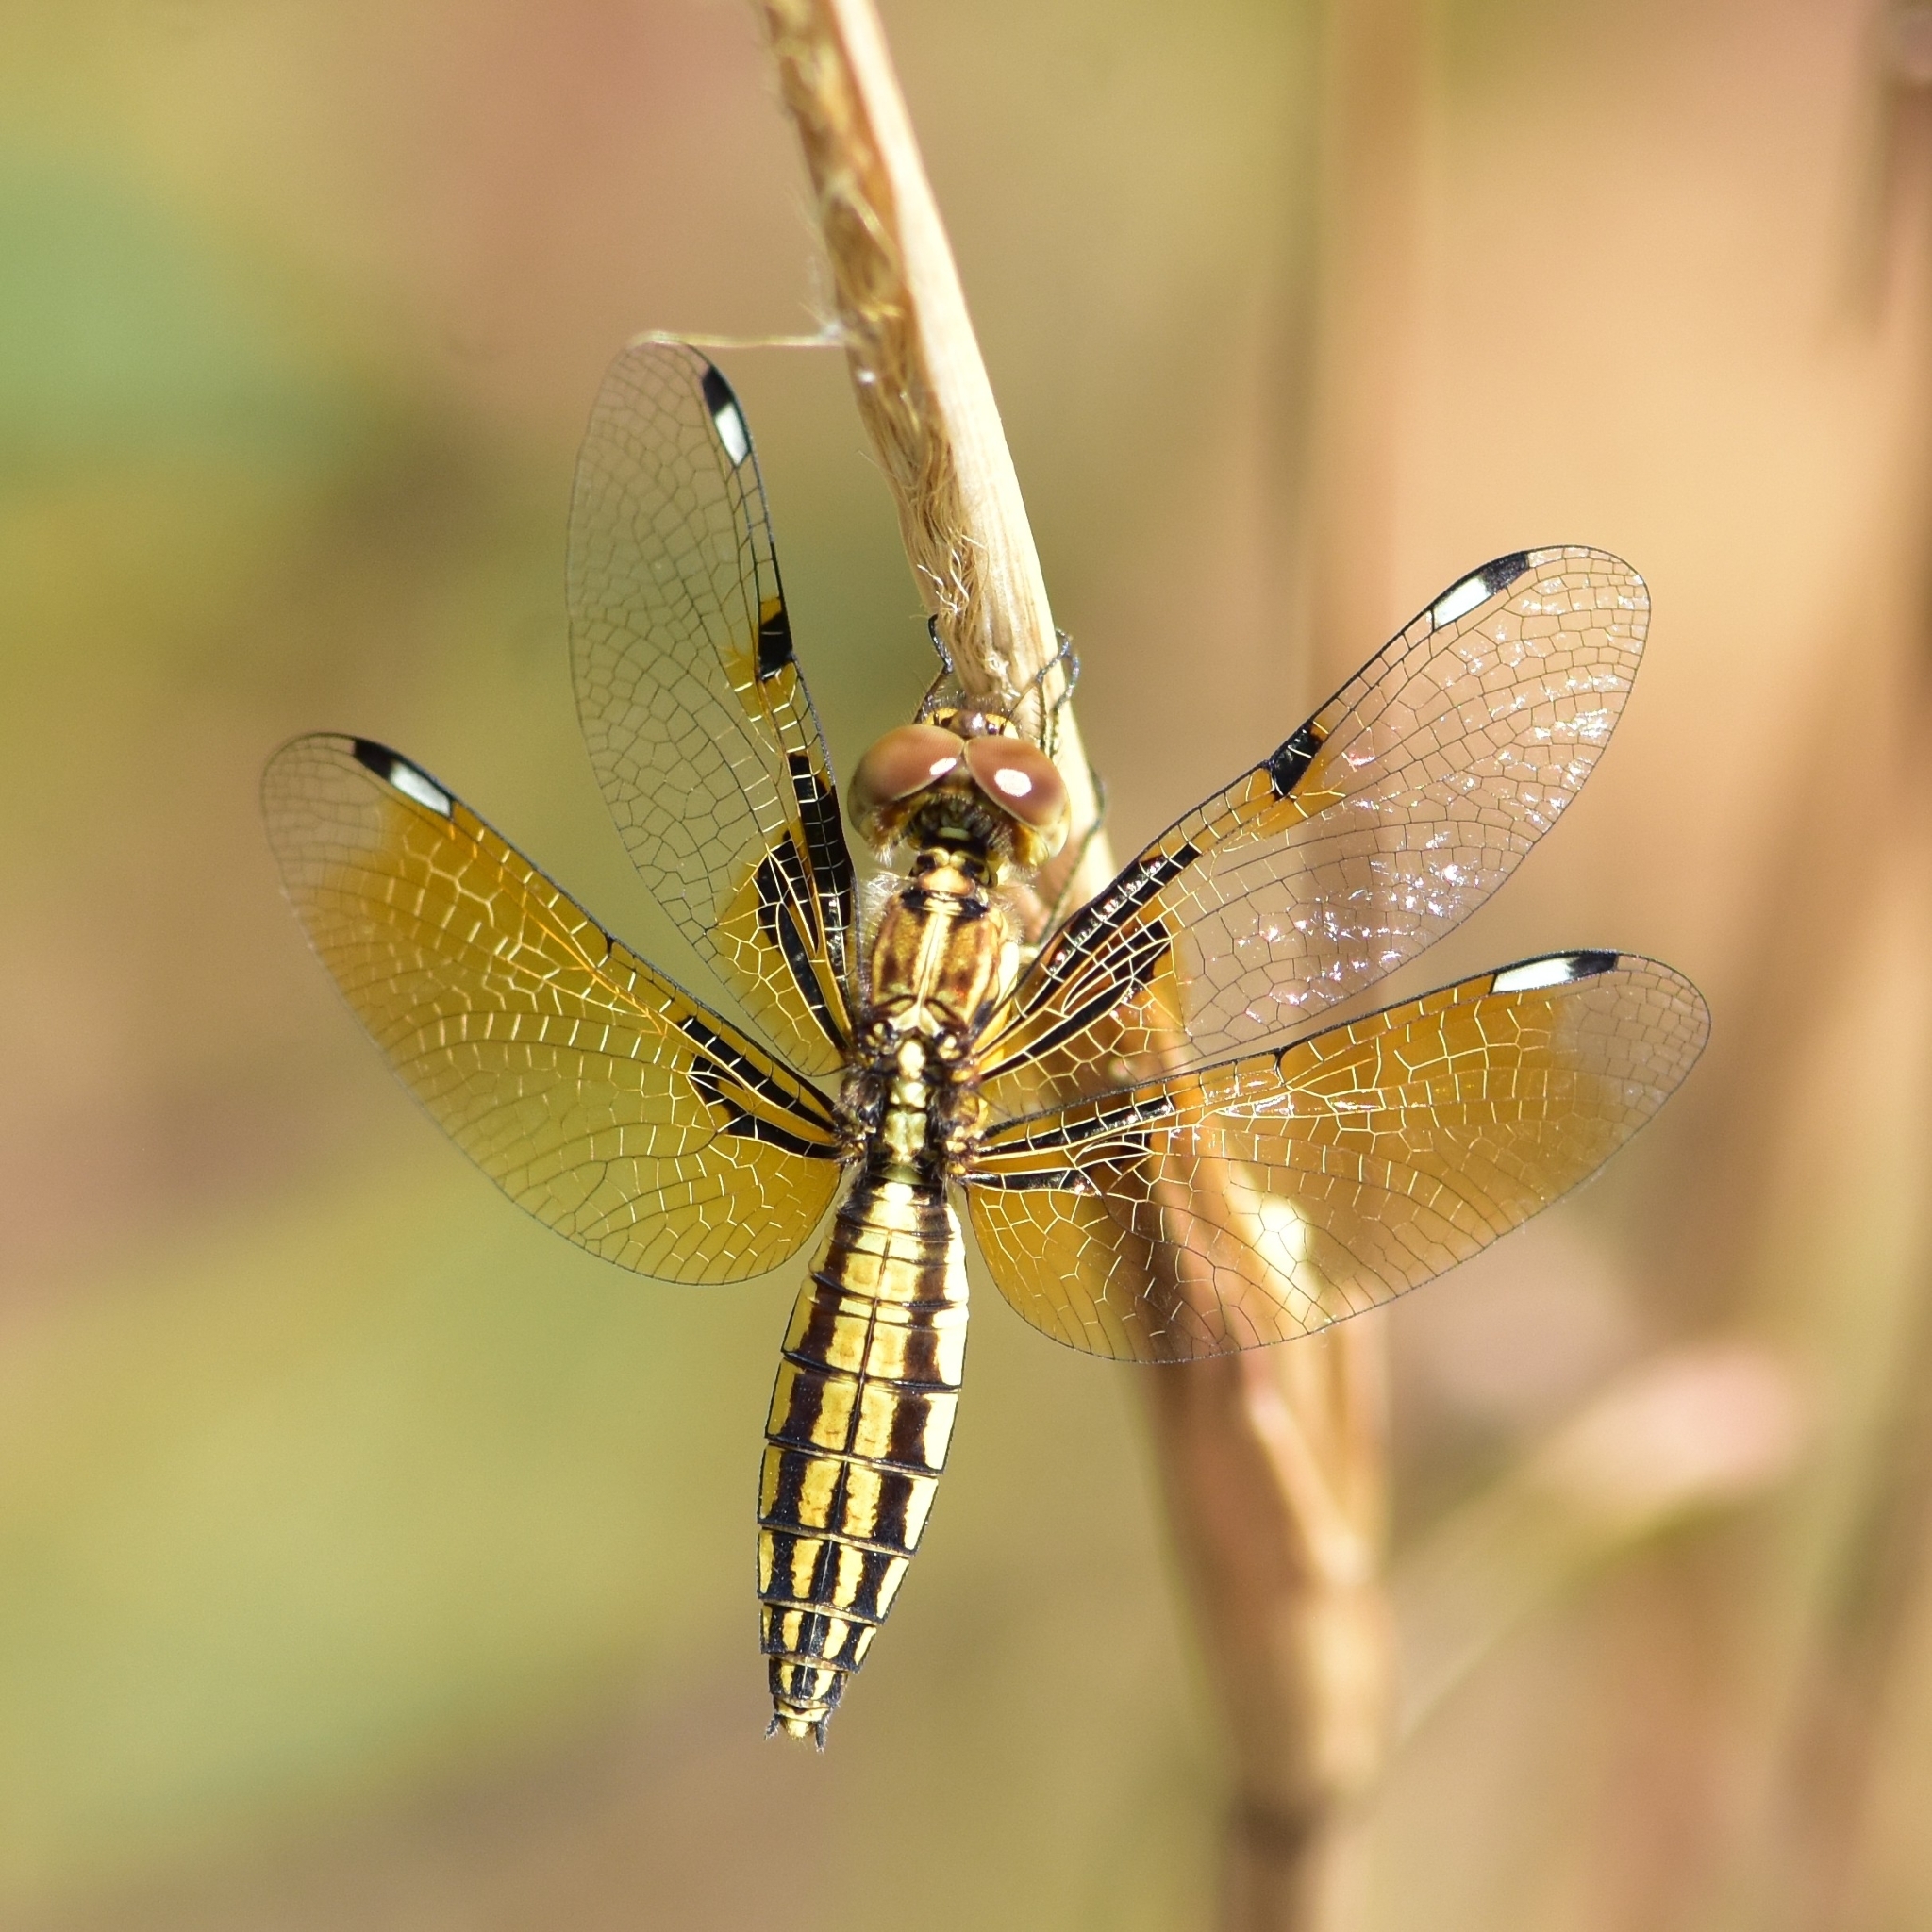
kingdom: Animalia
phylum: Arthropoda
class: Insecta
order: Odonata
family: Libellulidae
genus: Palpopleura
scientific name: Palpopleura sexmaculata
